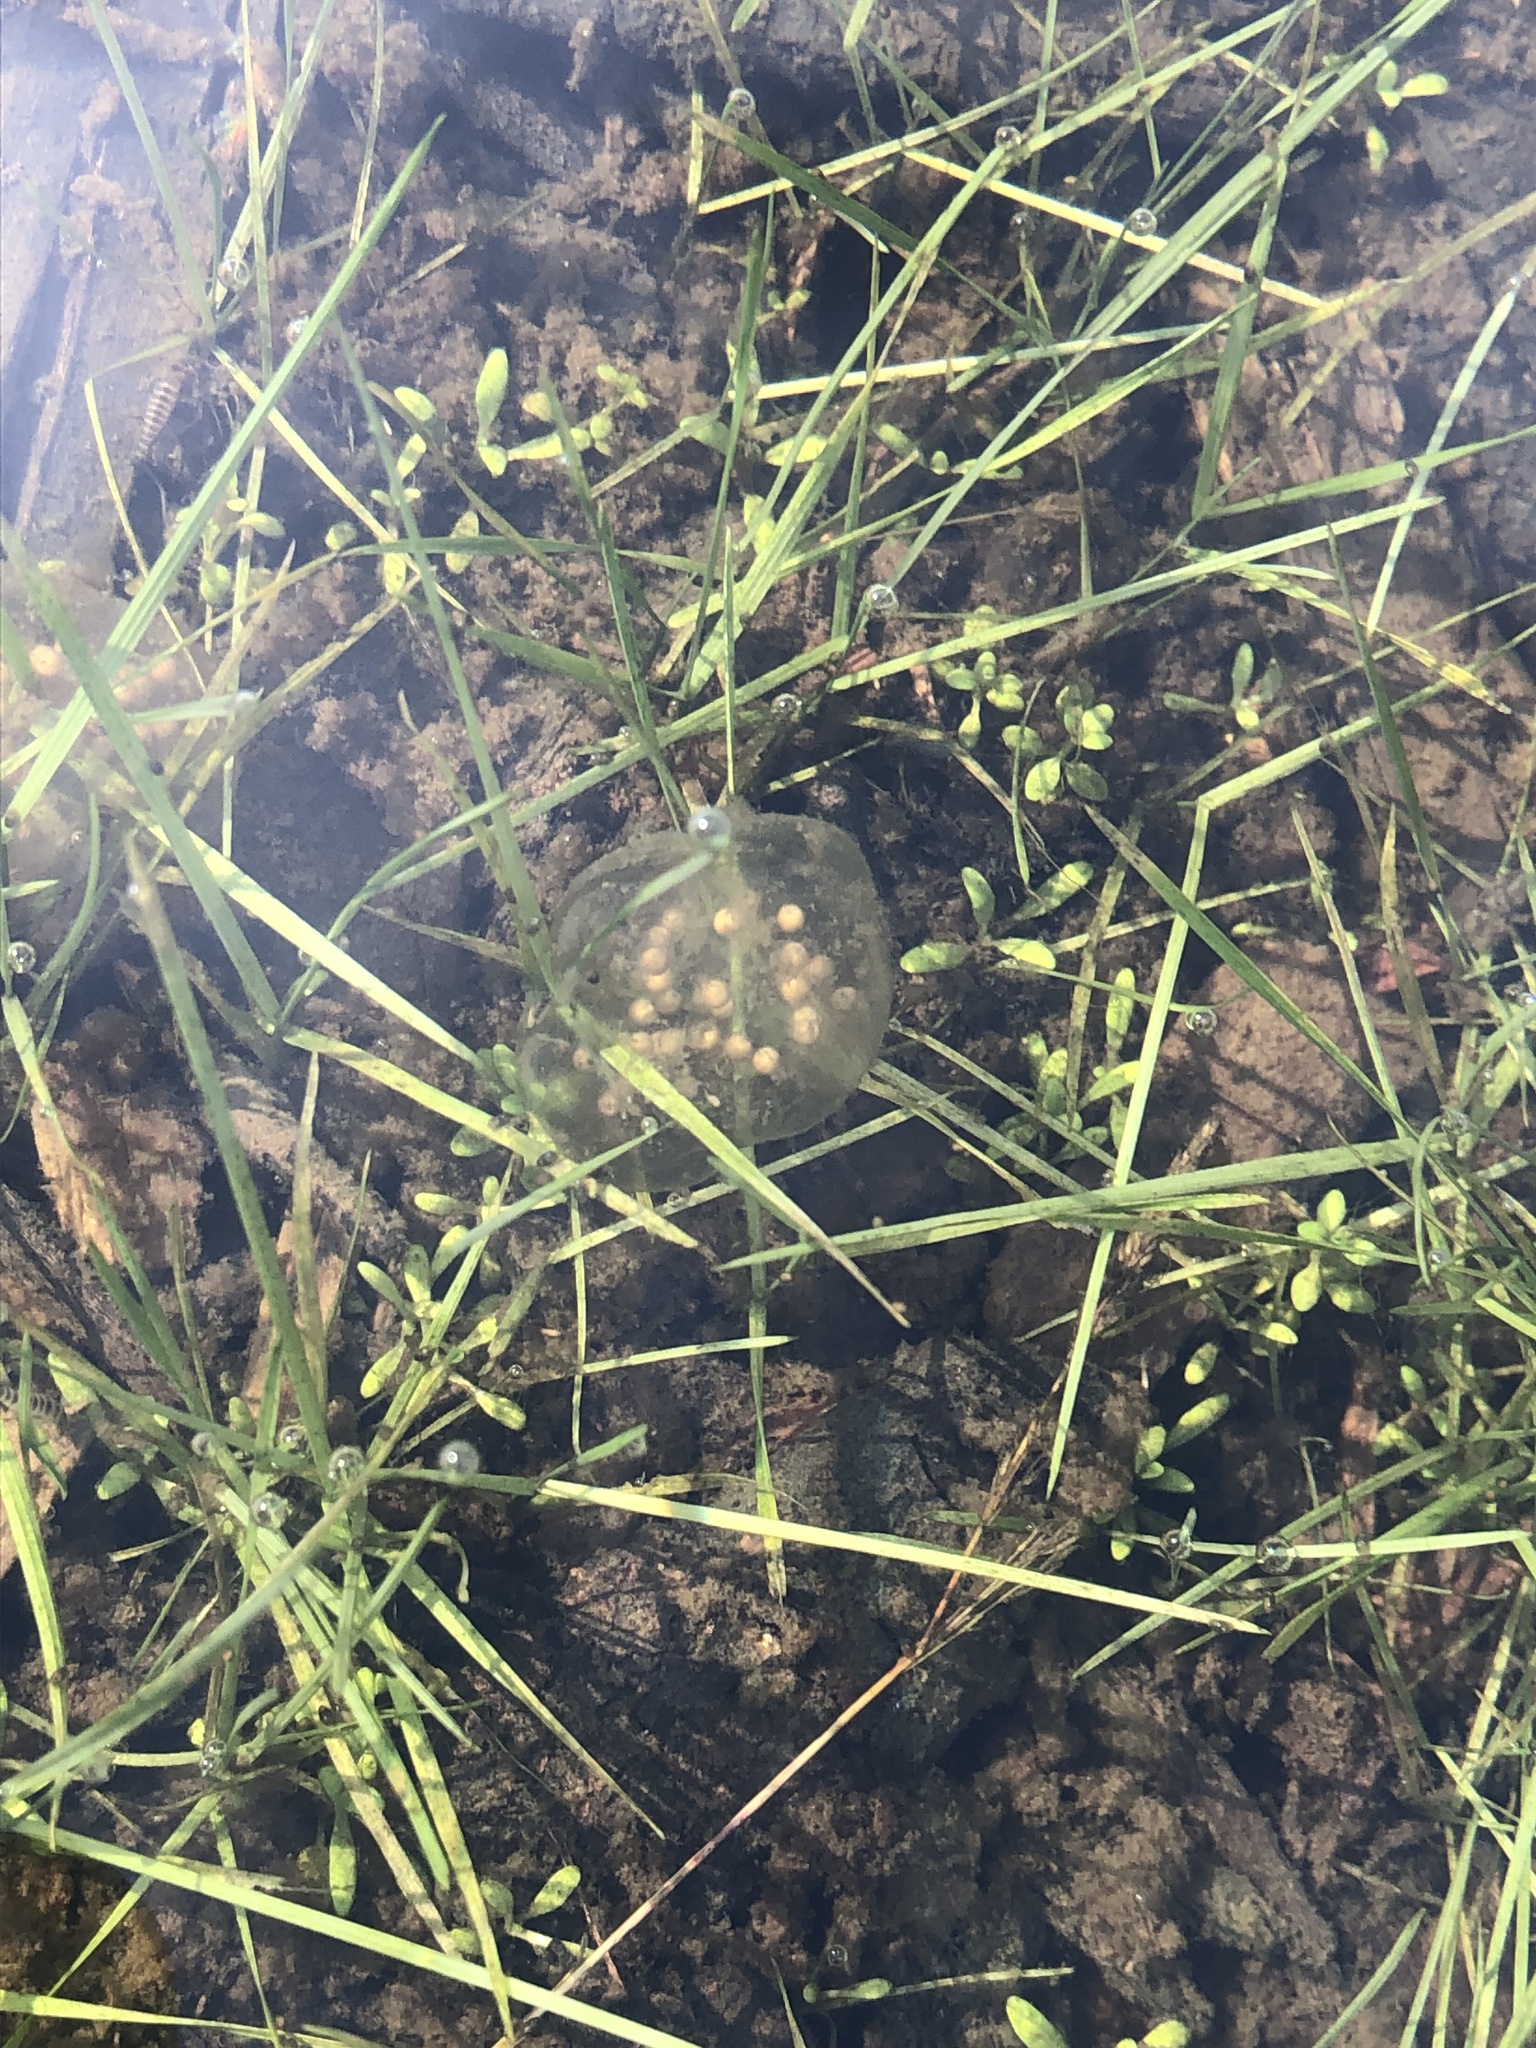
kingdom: Animalia
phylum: Chordata
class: Amphibia
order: Anura
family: Hylidae
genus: Pseudacris
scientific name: Pseudacris regilla
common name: Pacific chorus frog
